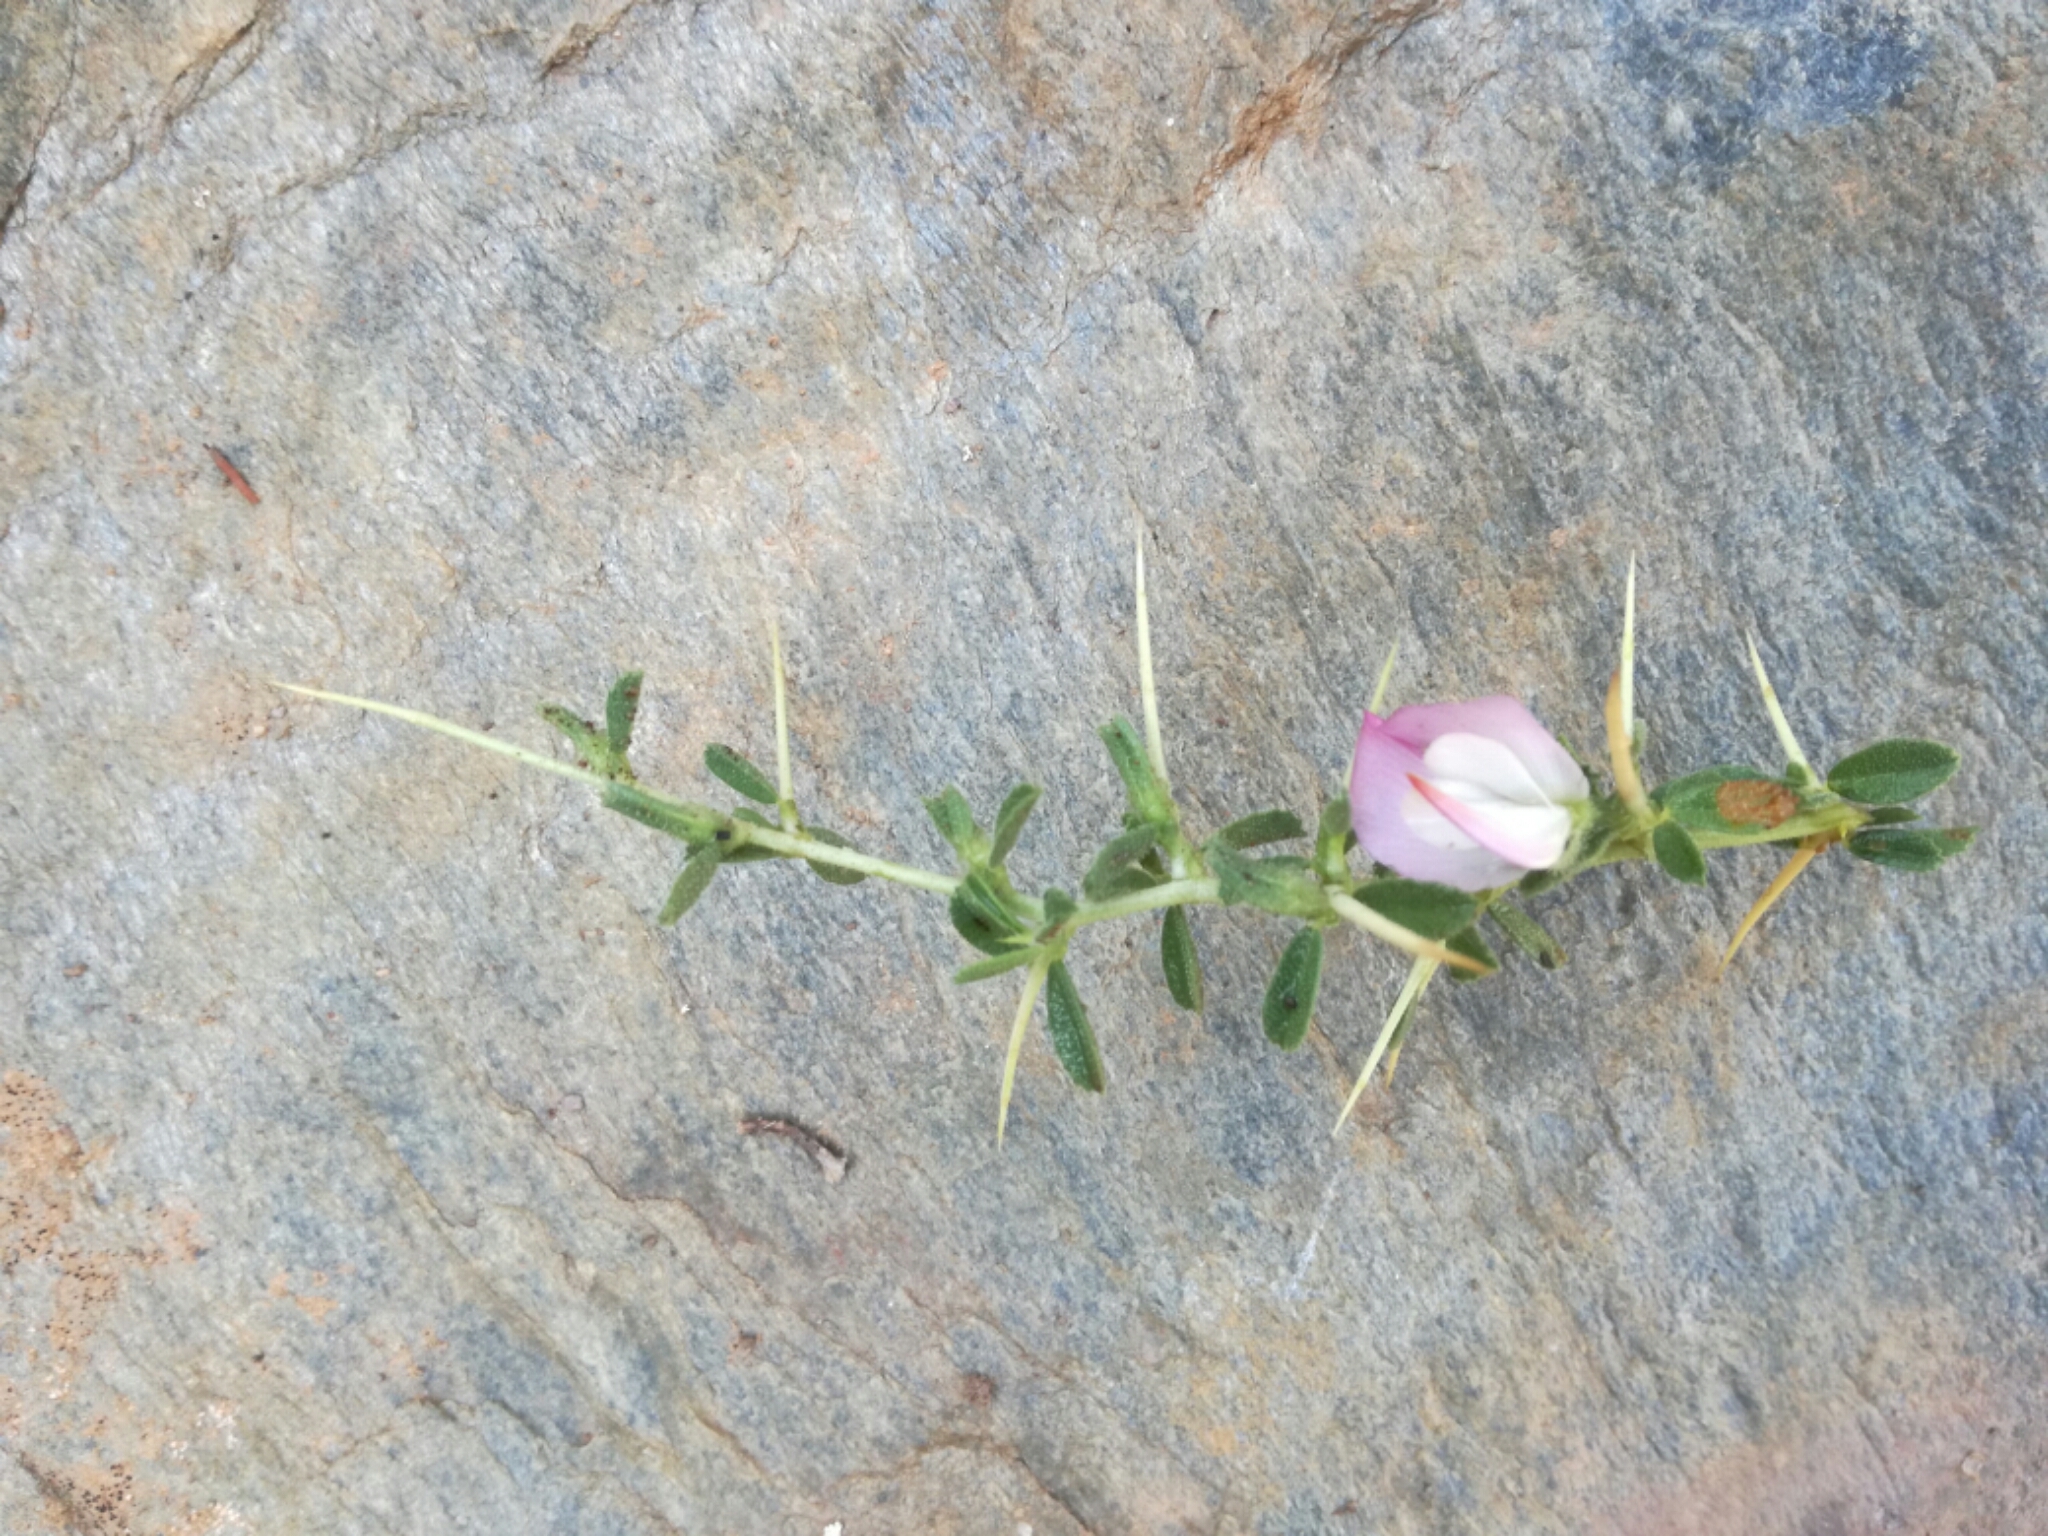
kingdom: Plantae
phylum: Tracheophyta
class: Magnoliopsida
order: Fabales
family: Fabaceae
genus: Ononis
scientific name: Ononis spinosa
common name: Spiny restharrow
